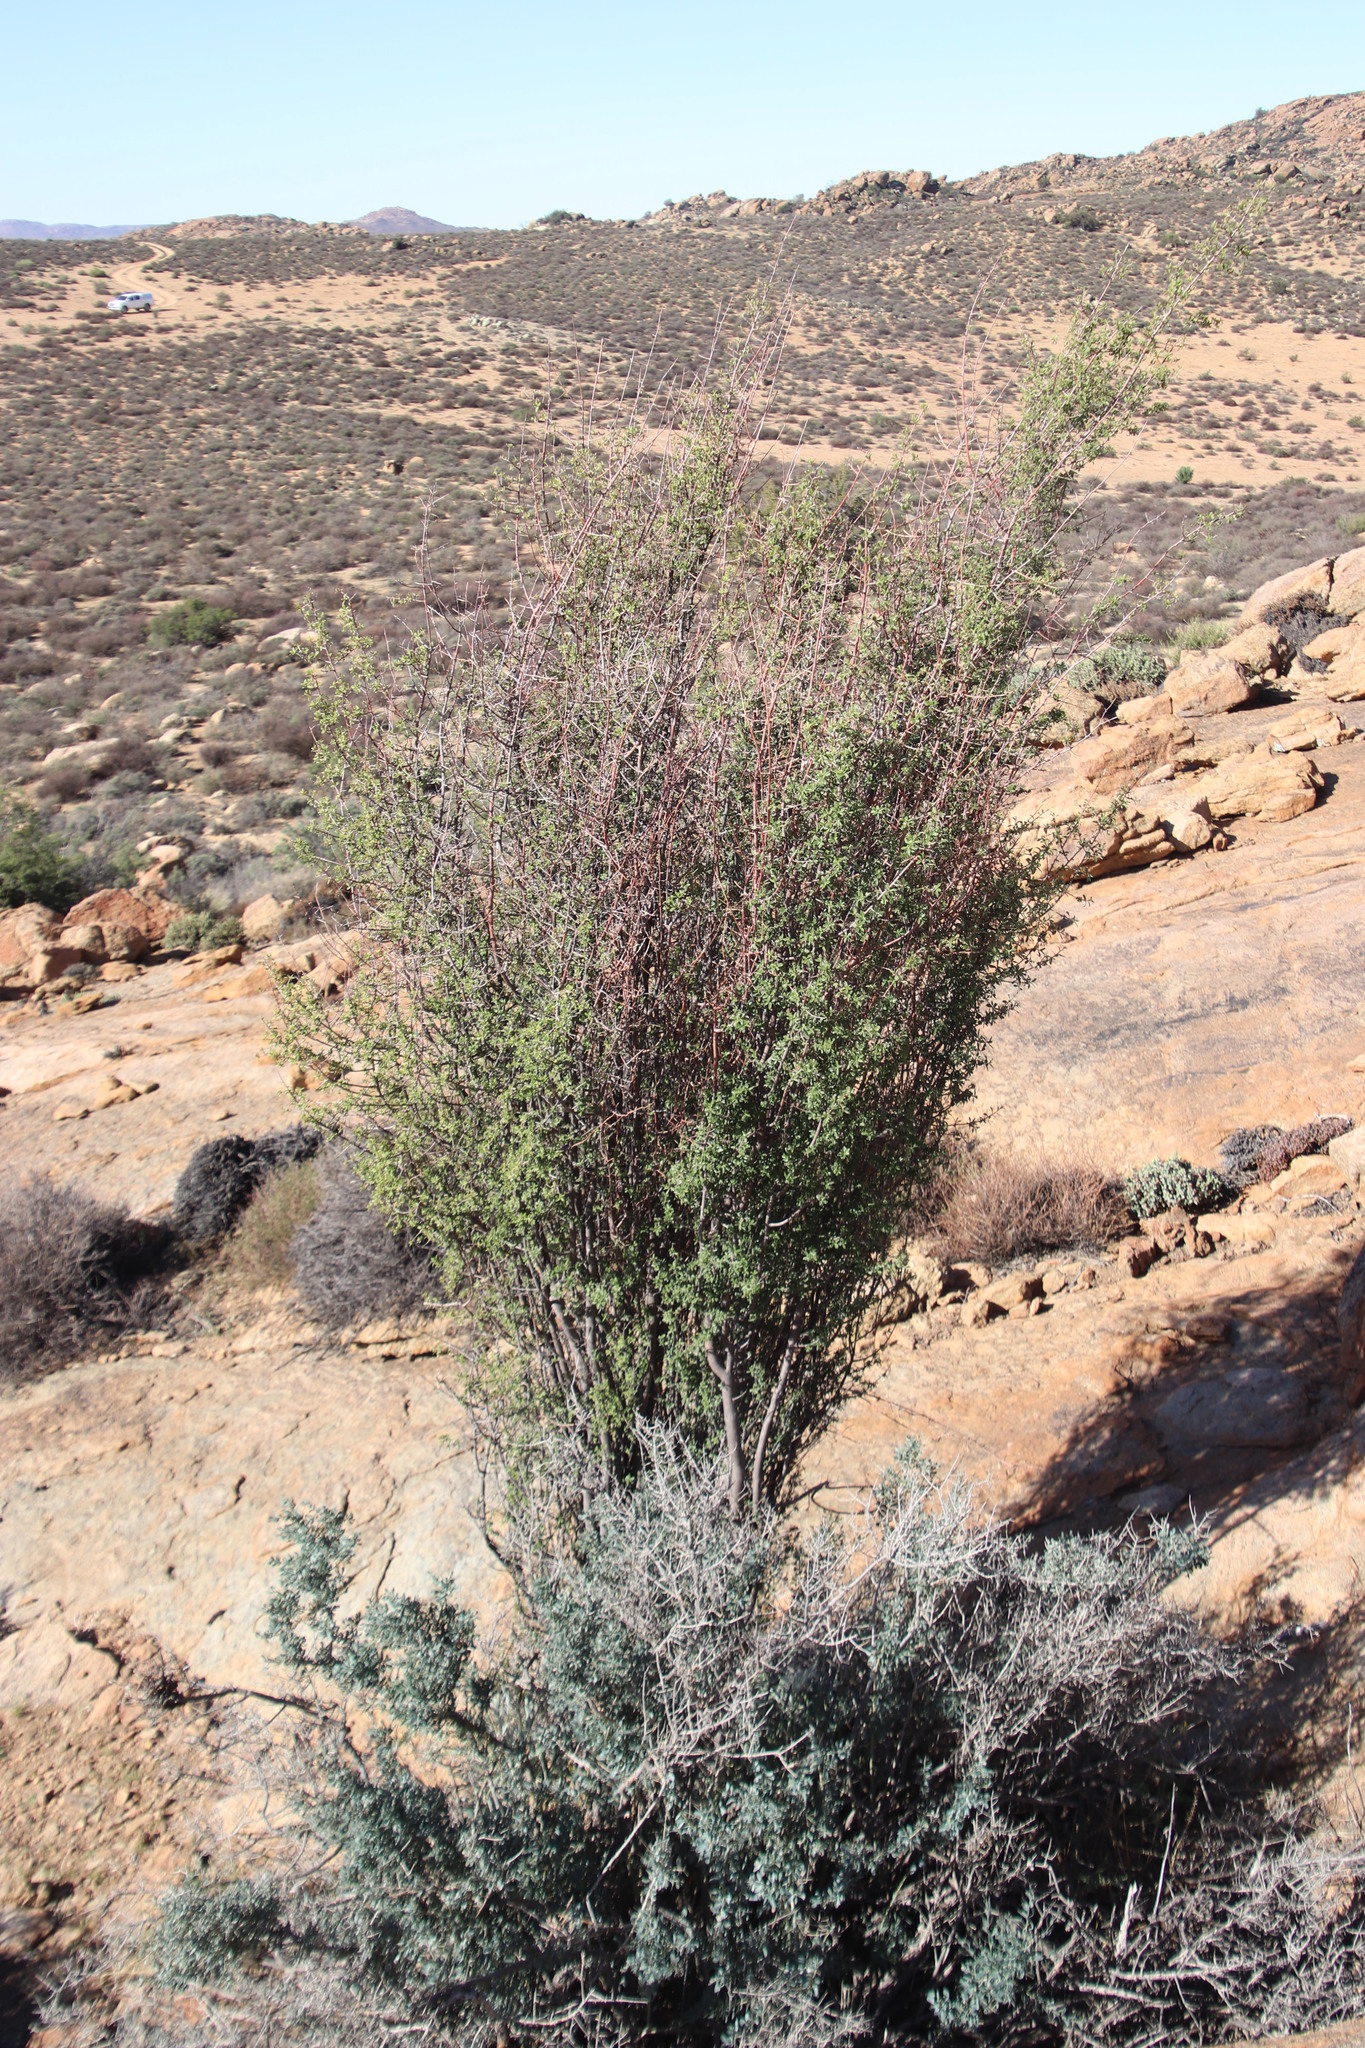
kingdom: Plantae
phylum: Tracheophyta
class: Magnoliopsida
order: Ericales
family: Ebenaceae
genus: Diospyros
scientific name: Diospyros ramulosa
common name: Namaqua fire-sticks
